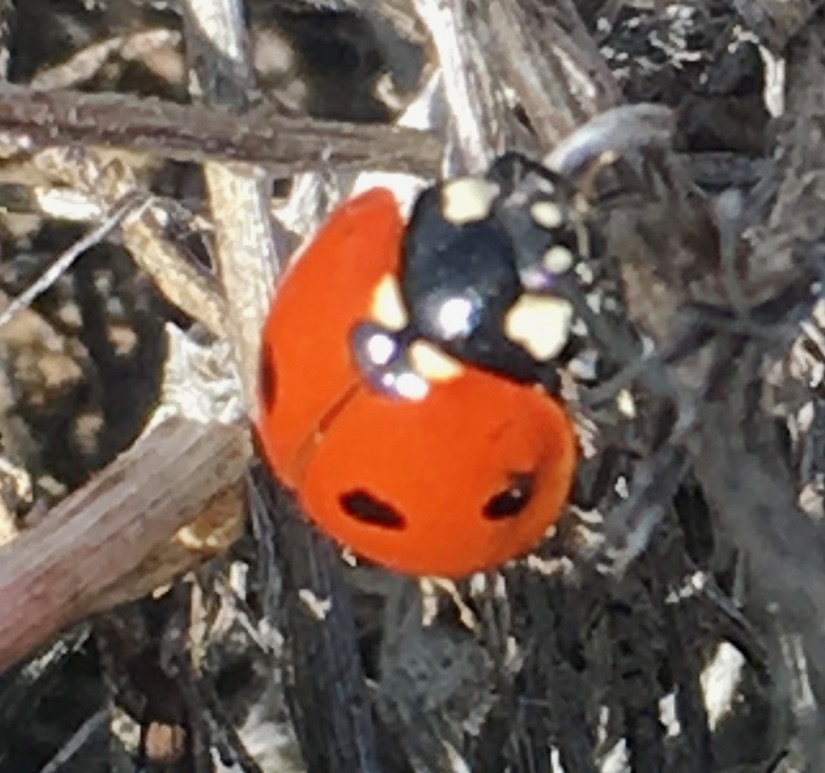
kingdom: Animalia
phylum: Arthropoda
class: Insecta
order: Coleoptera
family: Coccinellidae
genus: Coccinella
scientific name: Coccinella septempunctata
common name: Sevenspotted lady beetle
